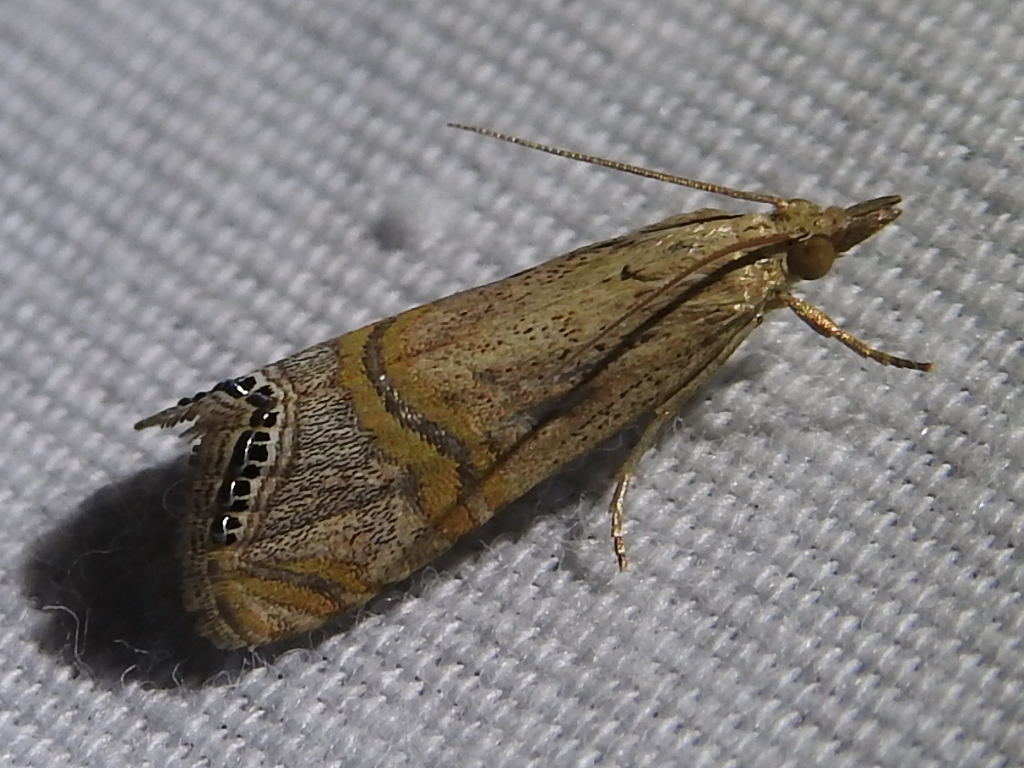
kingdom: Animalia
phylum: Arthropoda
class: Insecta
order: Lepidoptera
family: Crambidae
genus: Euchromius
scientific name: Euchromius ocellea
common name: Necklace veneer moth
